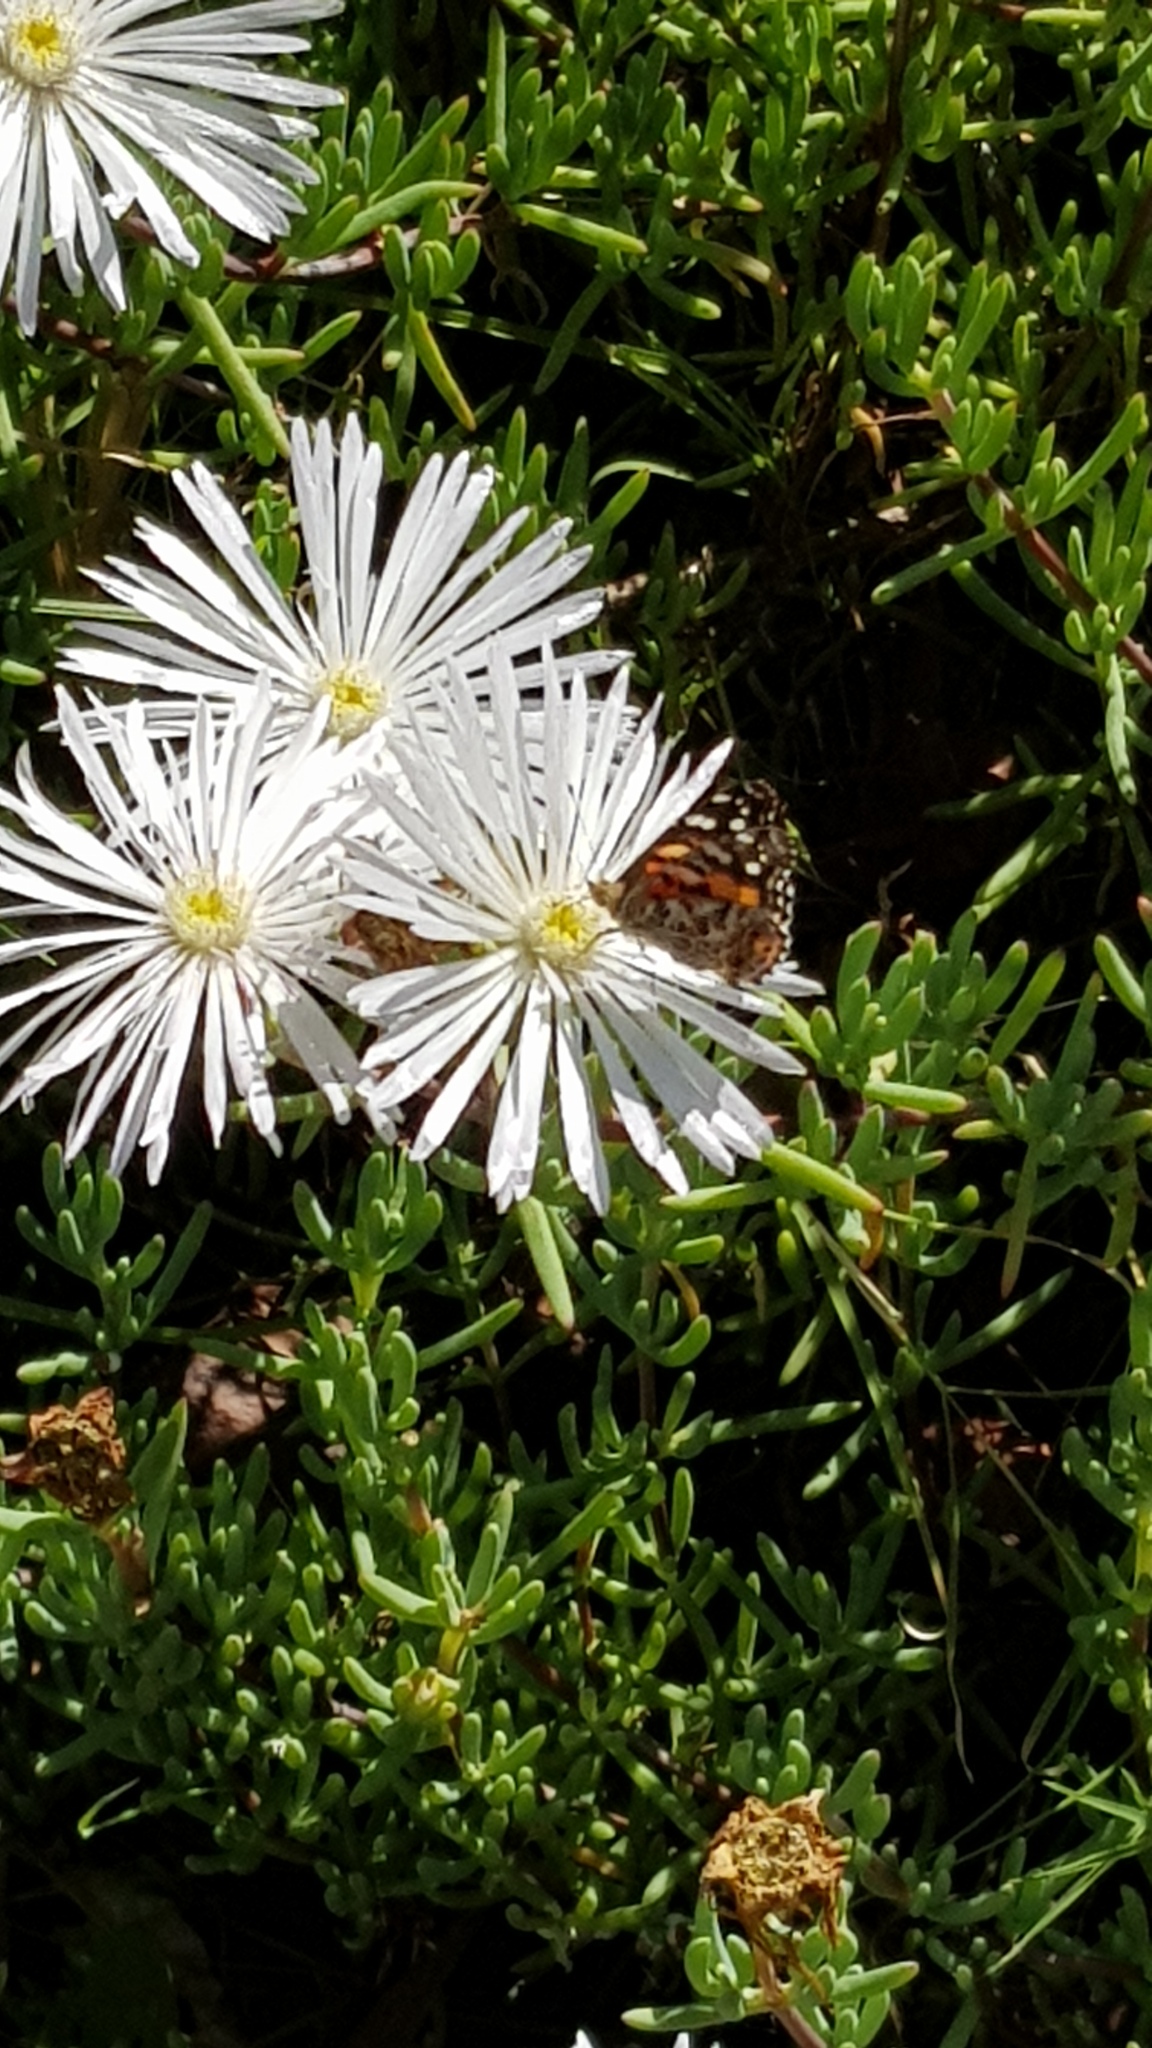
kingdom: Animalia
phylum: Arthropoda
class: Insecta
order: Lepidoptera
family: Nymphalidae
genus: Vanessa
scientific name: Vanessa kershawi
